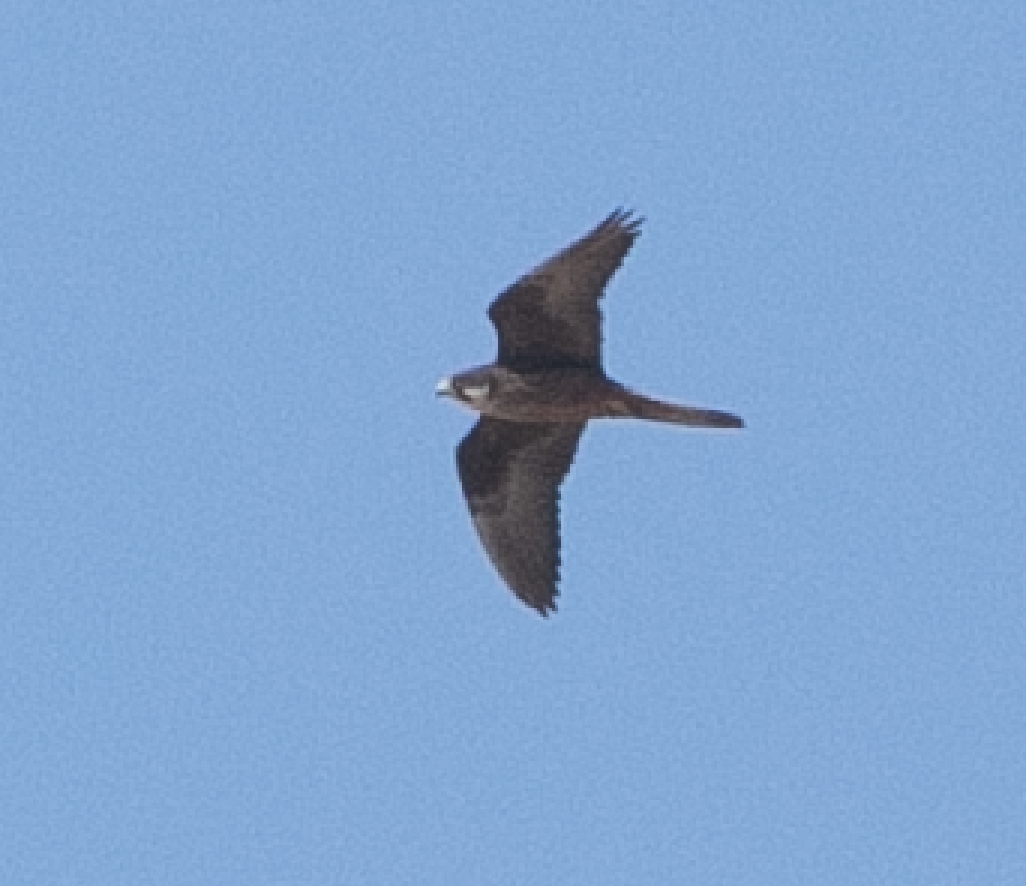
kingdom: Animalia
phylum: Chordata
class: Aves
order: Falconiformes
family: Falconidae
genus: Falco
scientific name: Falco eleonorae
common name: Eleonora's falcon
